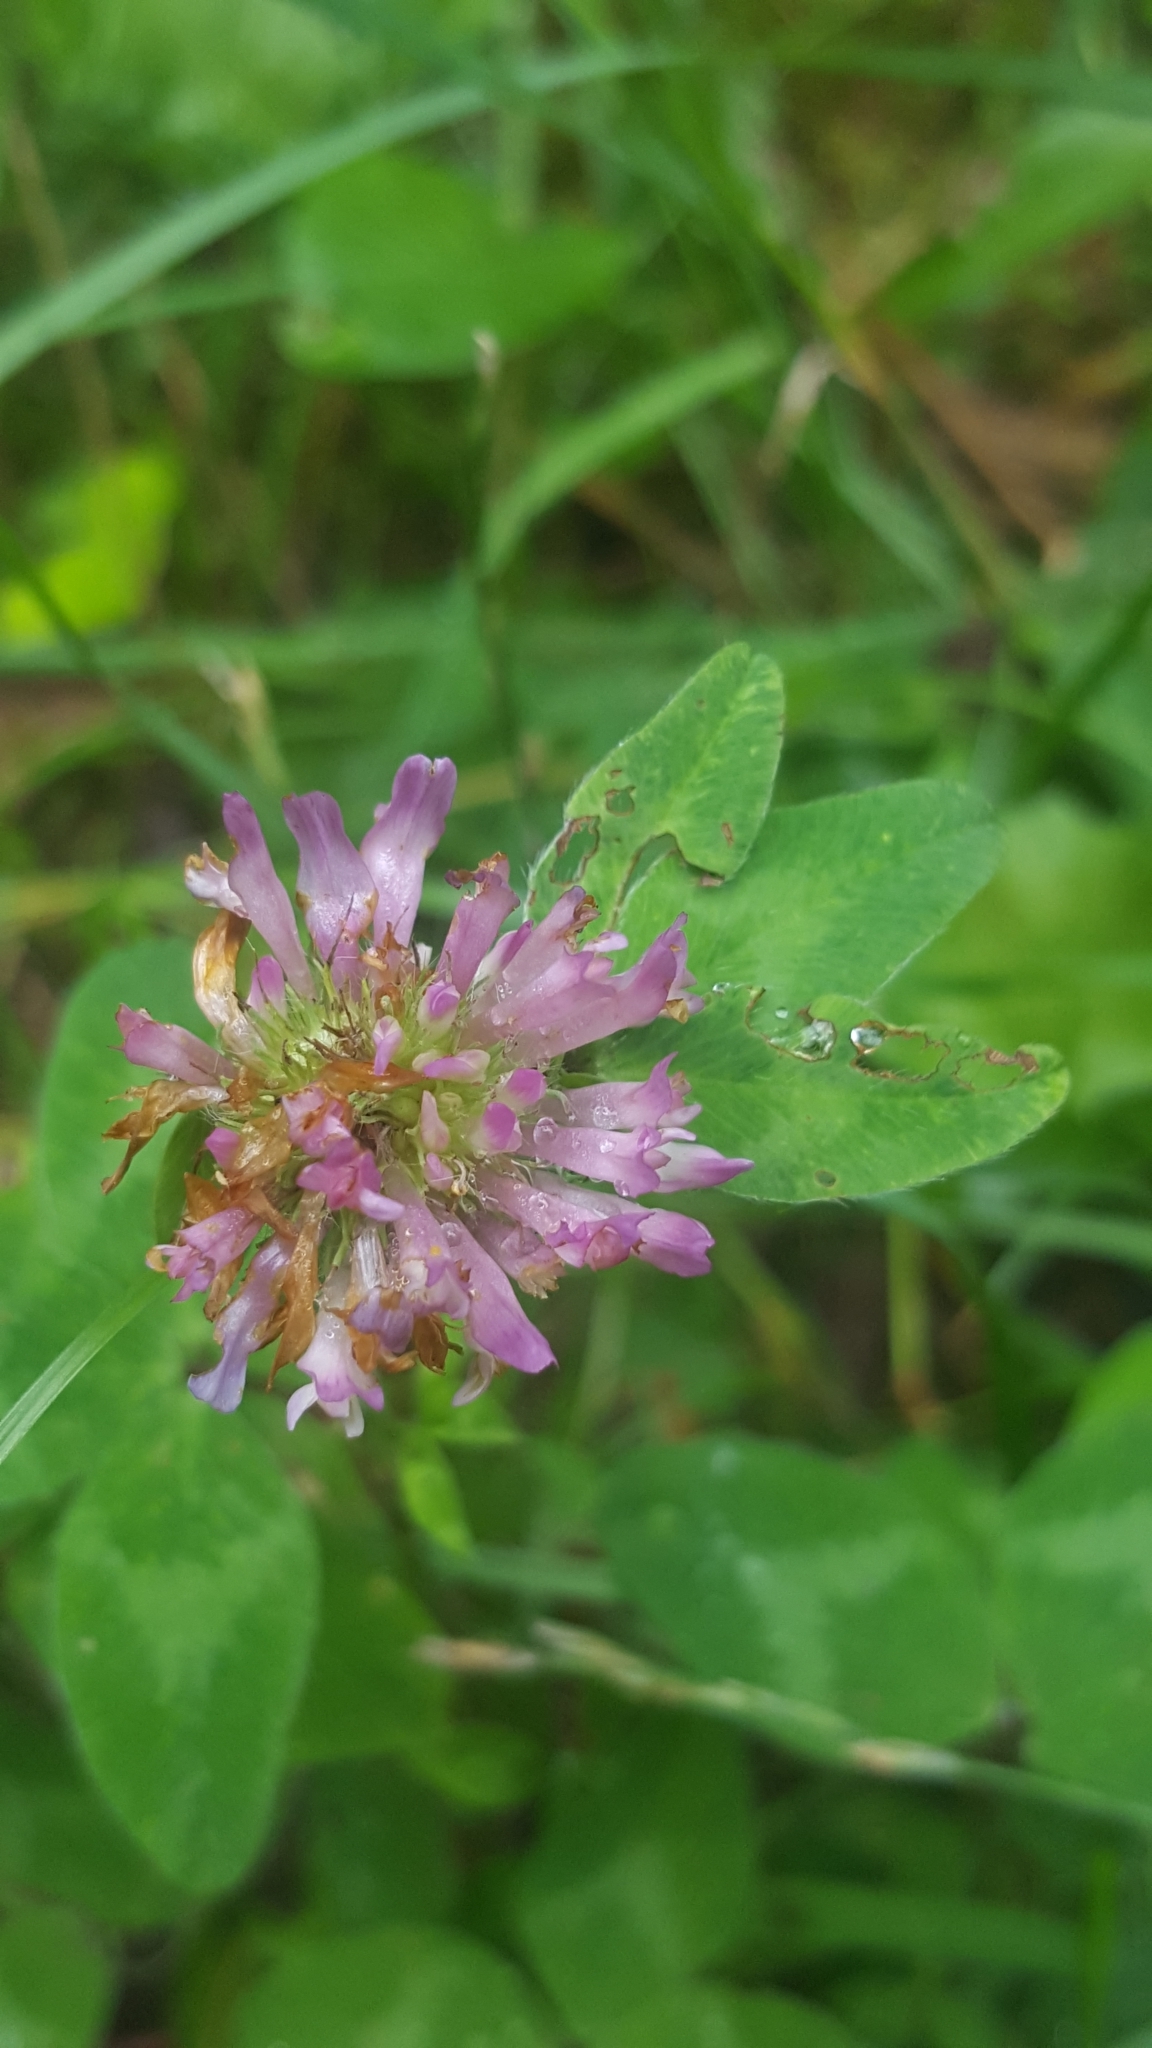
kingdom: Plantae
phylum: Tracheophyta
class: Magnoliopsida
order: Fabales
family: Fabaceae
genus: Trifolium
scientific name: Trifolium pratense
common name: Red clover
